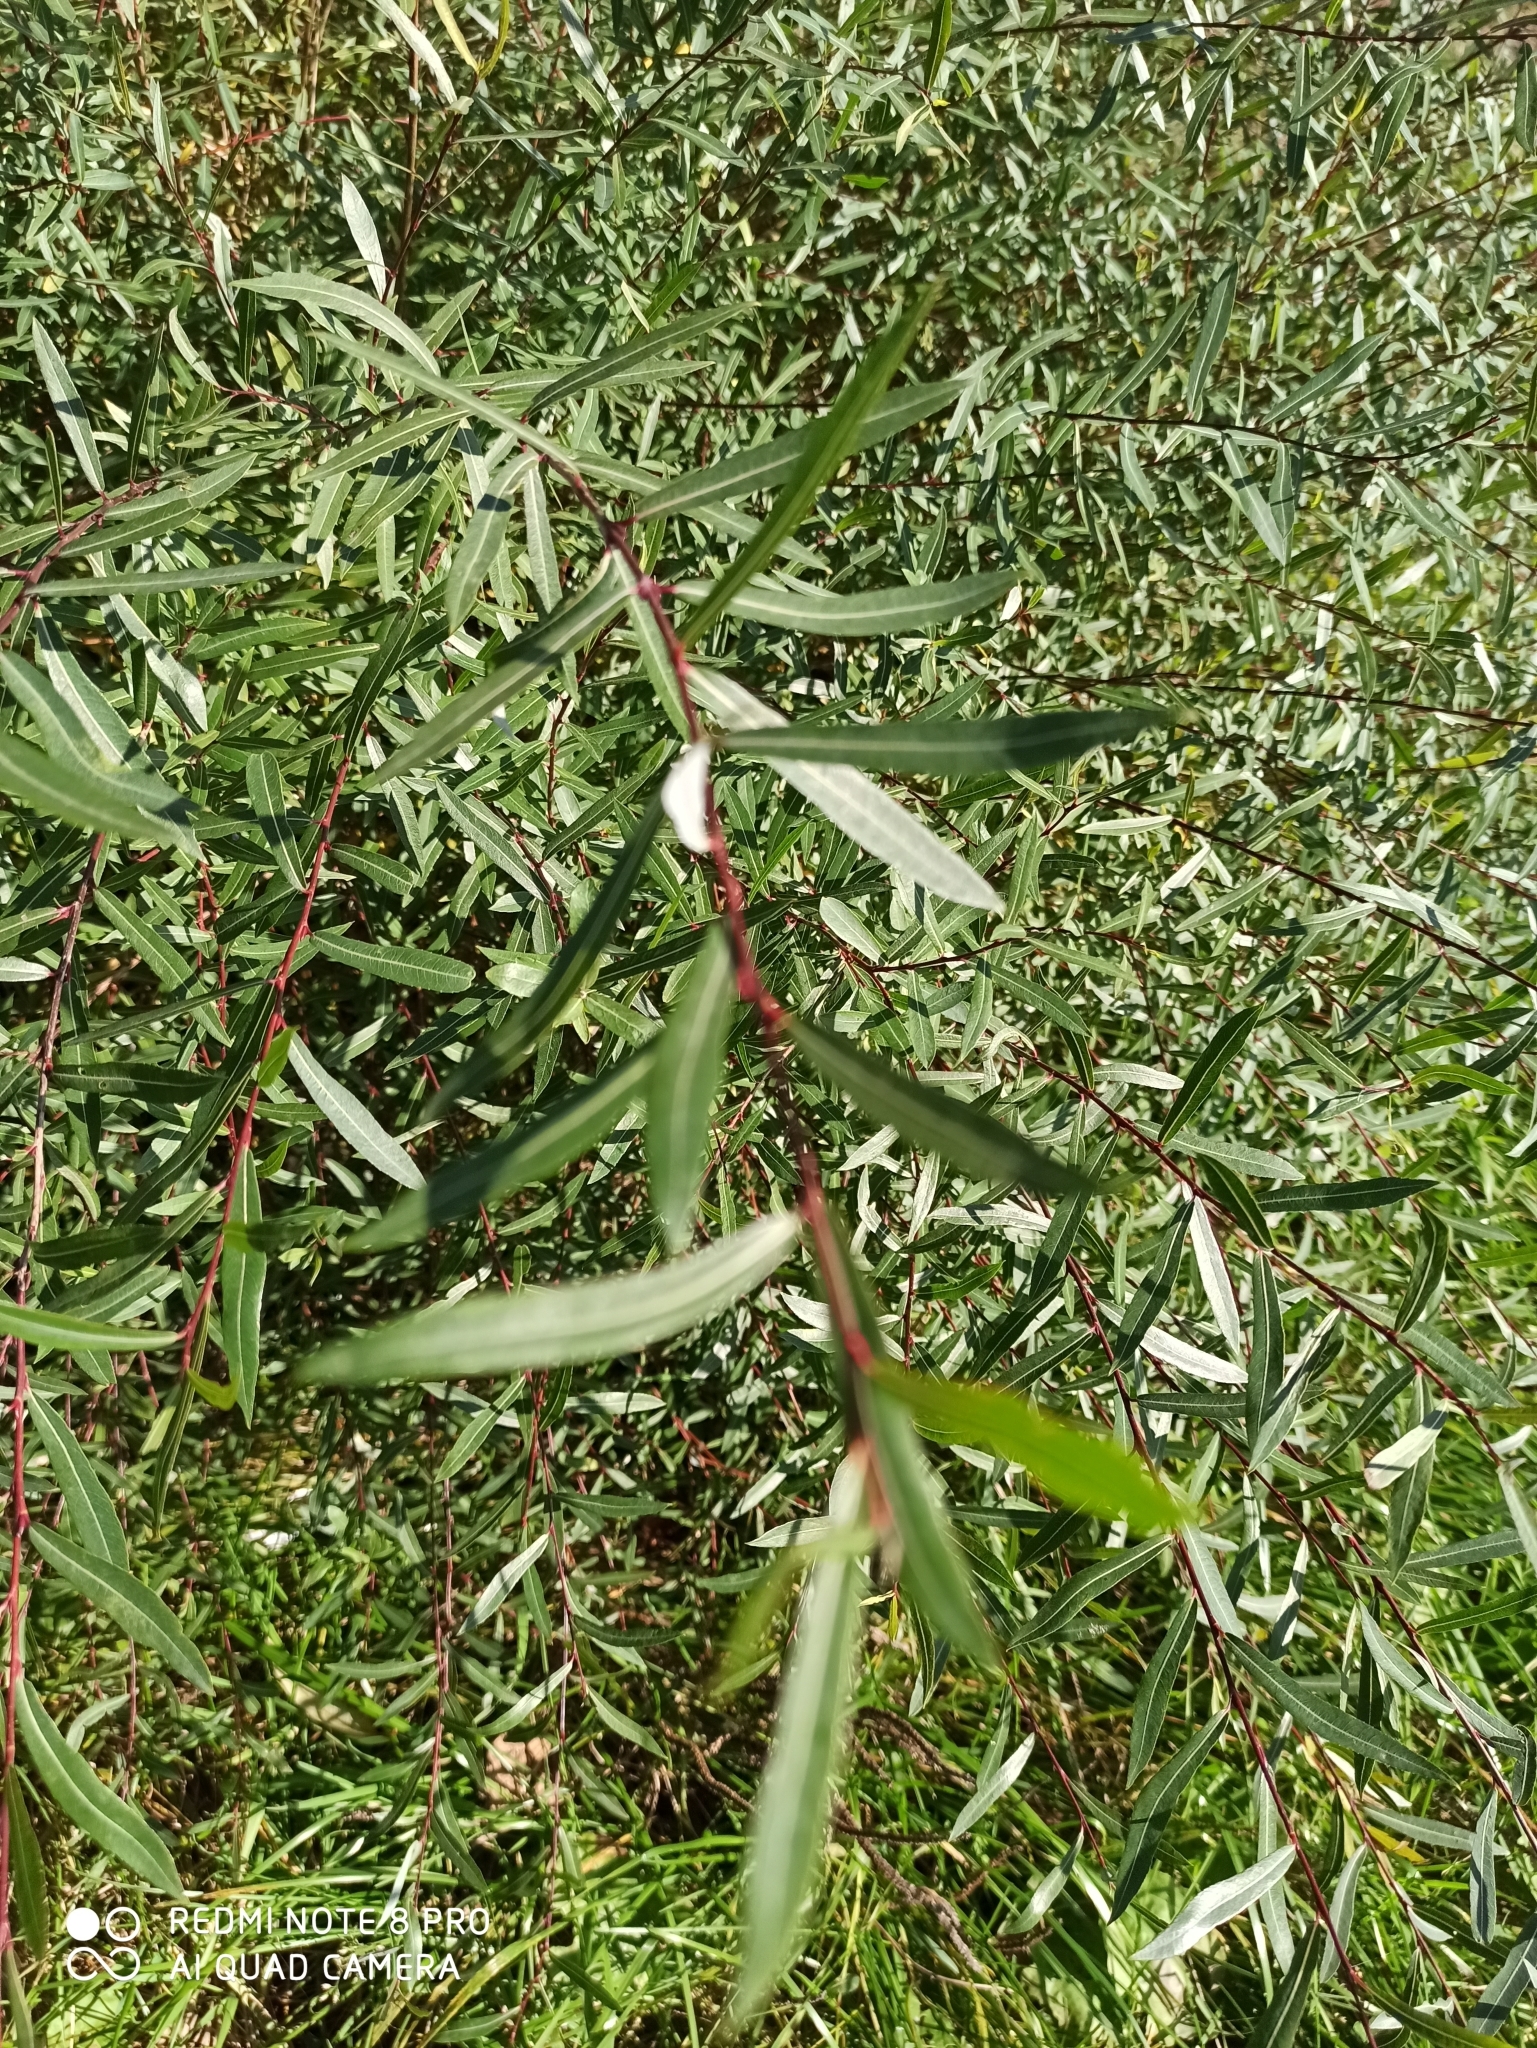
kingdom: Plantae
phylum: Tracheophyta
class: Magnoliopsida
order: Malpighiales
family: Salicaceae
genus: Salix
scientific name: Salix purpurea
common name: Purple willow
